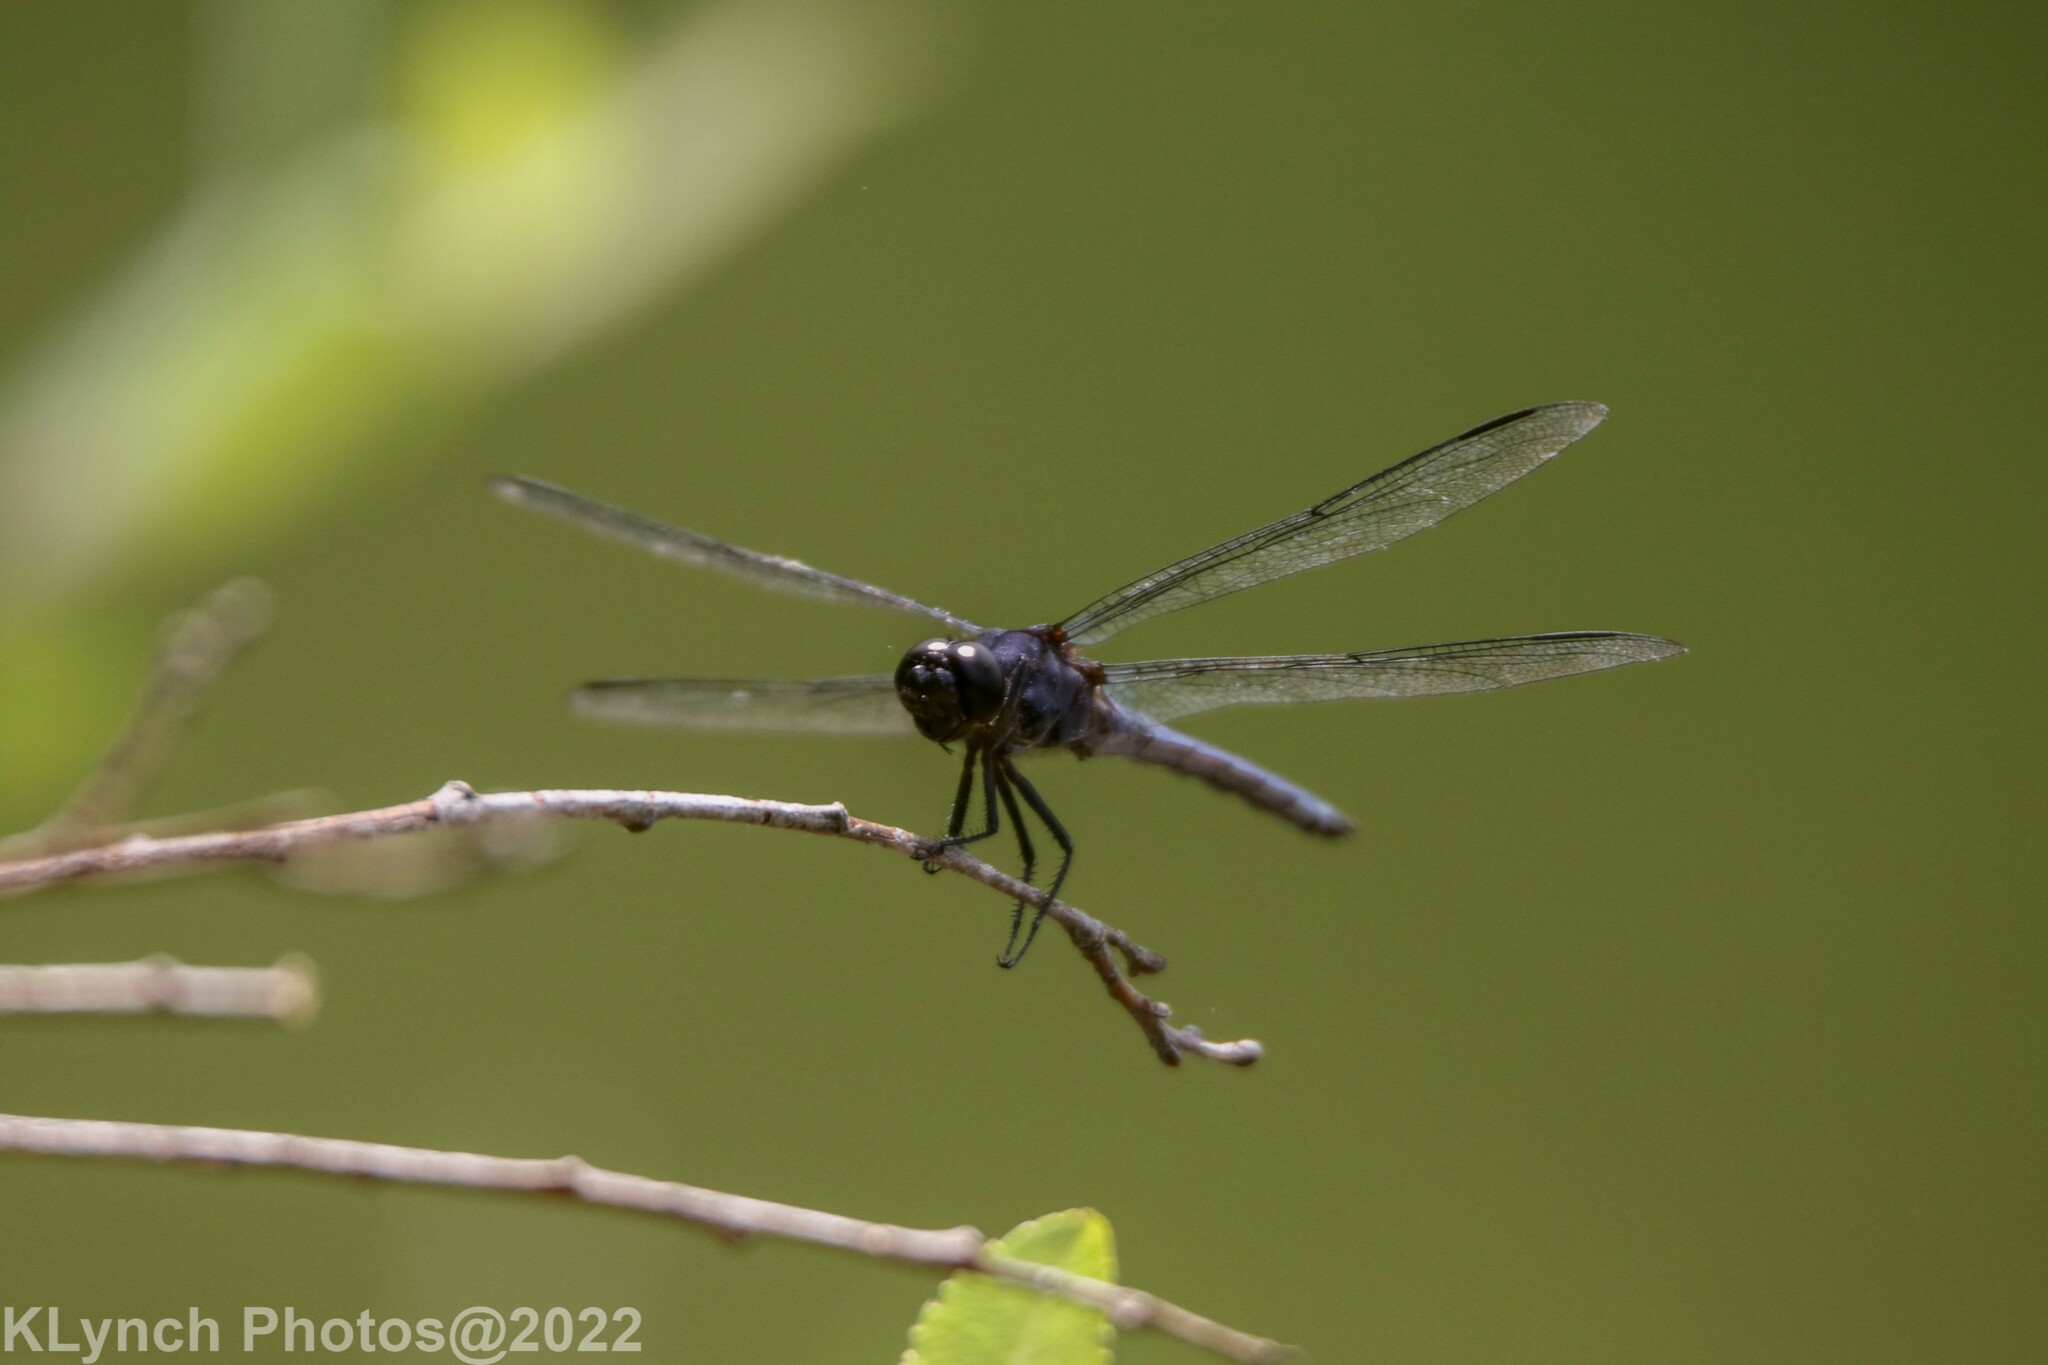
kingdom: Animalia
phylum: Arthropoda
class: Insecta
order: Odonata
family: Libellulidae
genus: Libellula
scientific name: Libellula incesta
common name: Slaty skimmer
